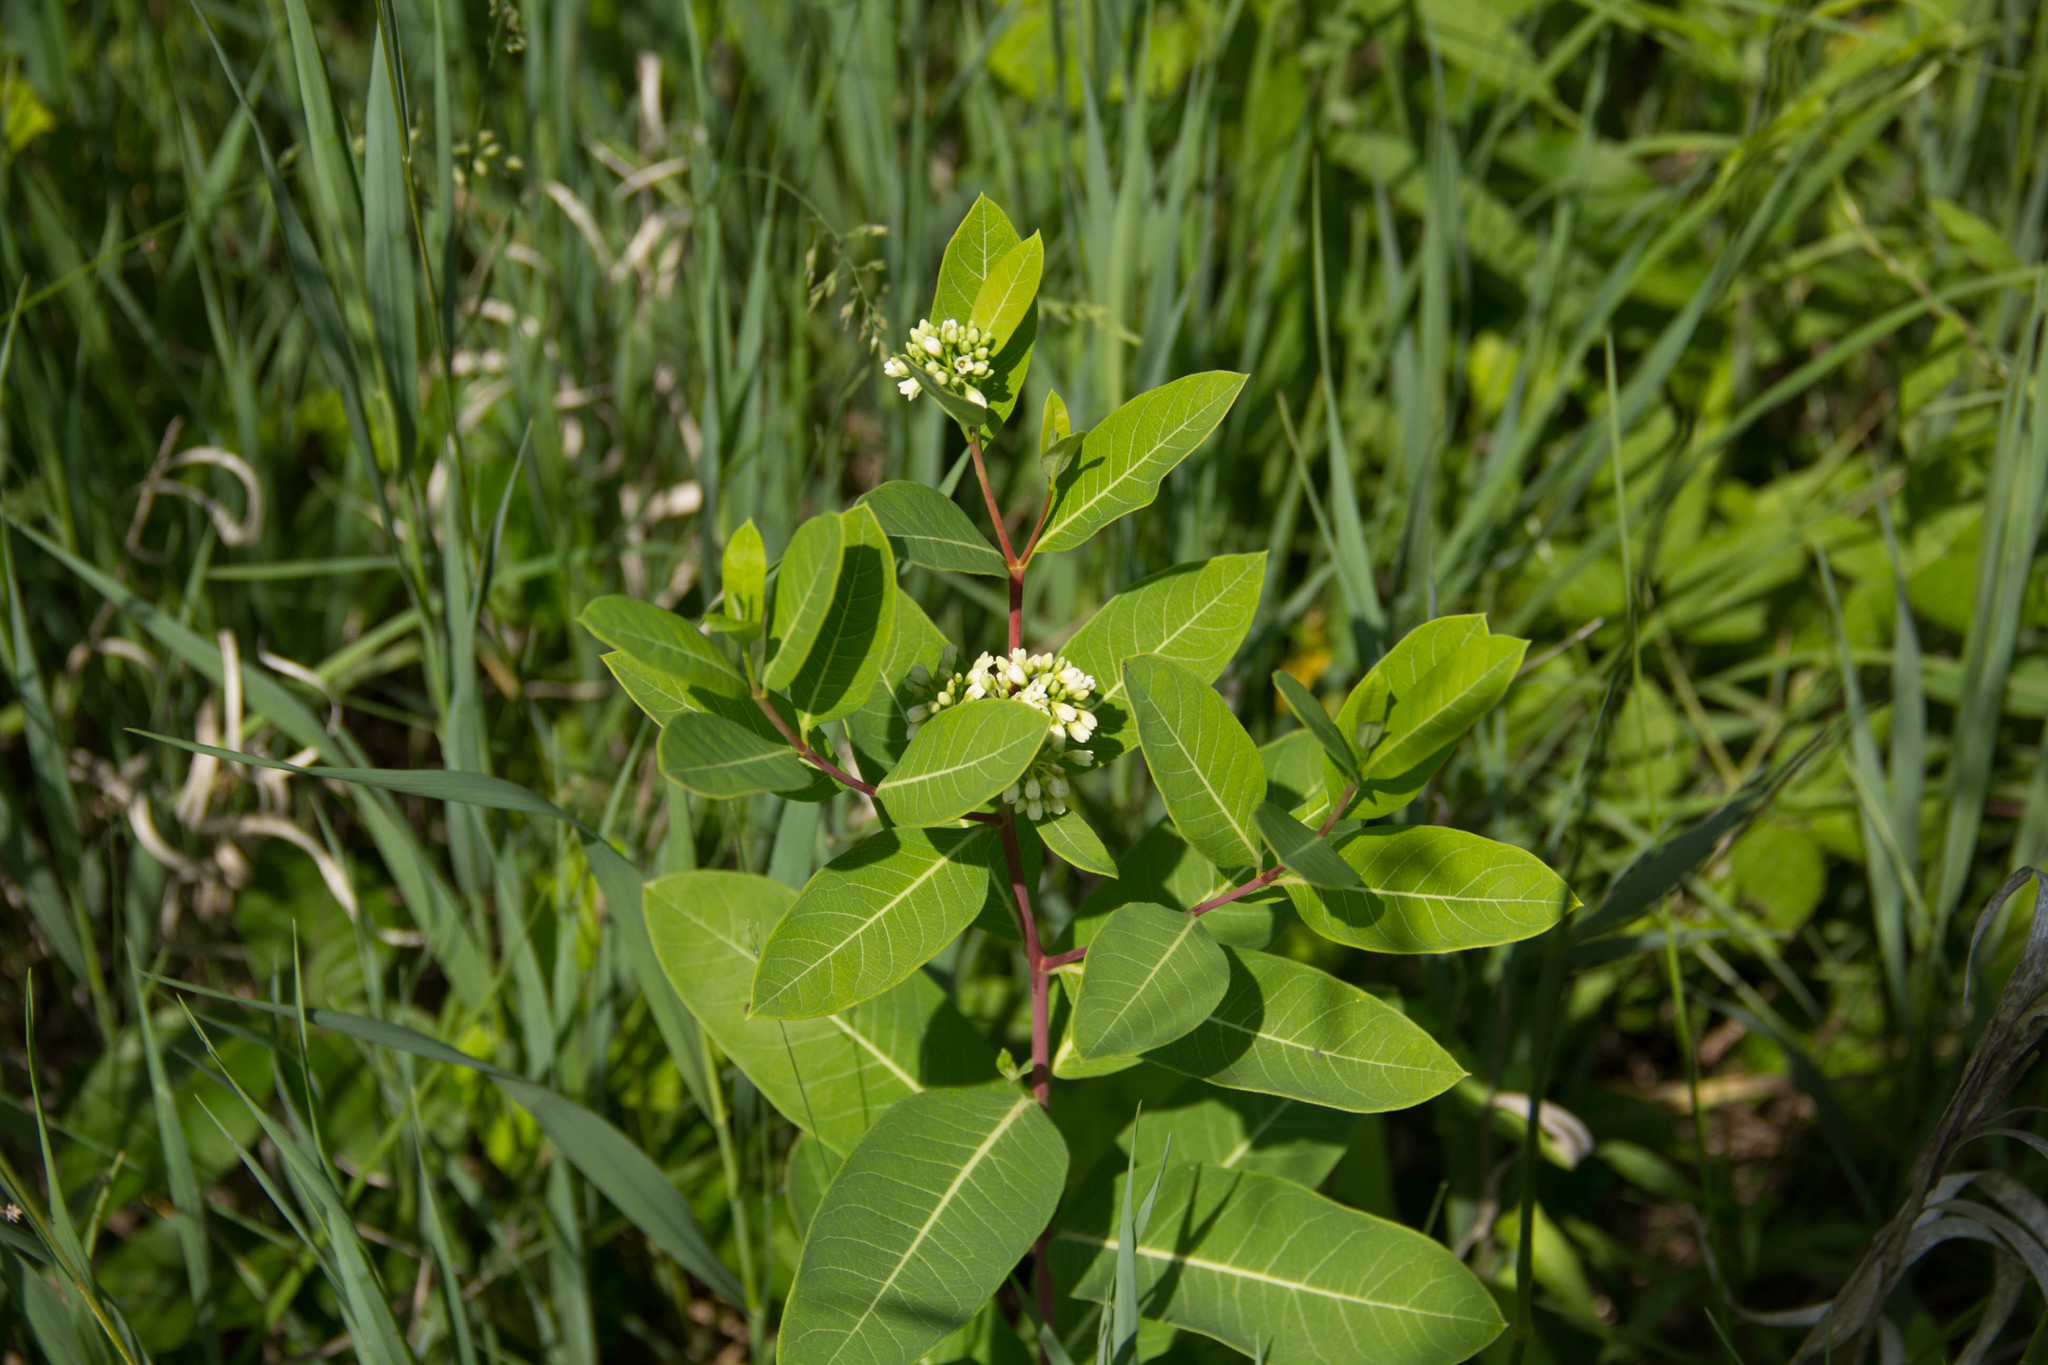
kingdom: Plantae
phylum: Tracheophyta
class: Magnoliopsida
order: Gentianales
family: Apocynaceae
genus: Apocynum
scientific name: Apocynum cannabinum
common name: Hemp dogbane
